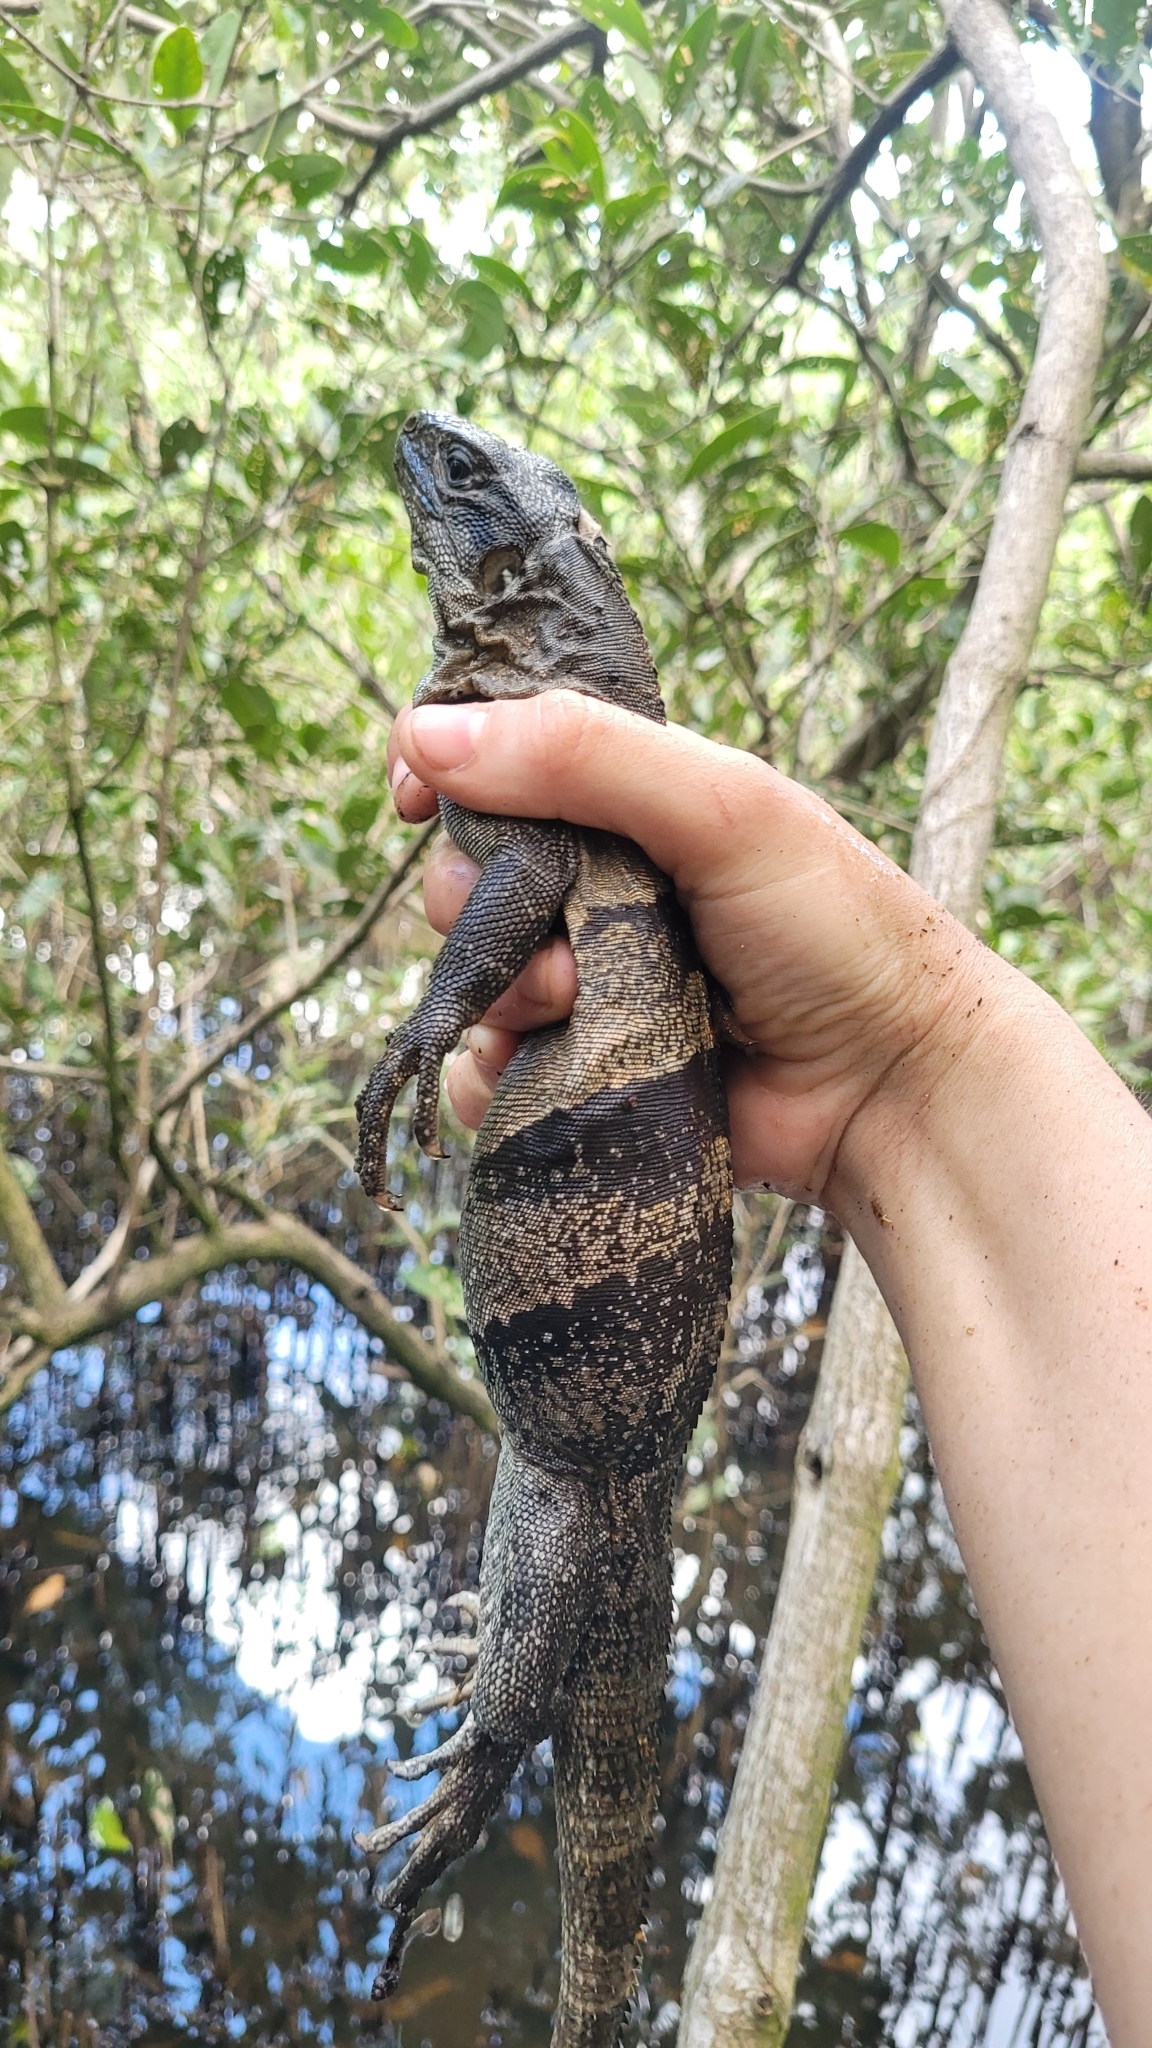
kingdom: Animalia
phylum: Chordata
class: Squamata
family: Iguanidae
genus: Ctenosaura
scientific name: Ctenosaura similis
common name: Black spiny-tailed iguana
